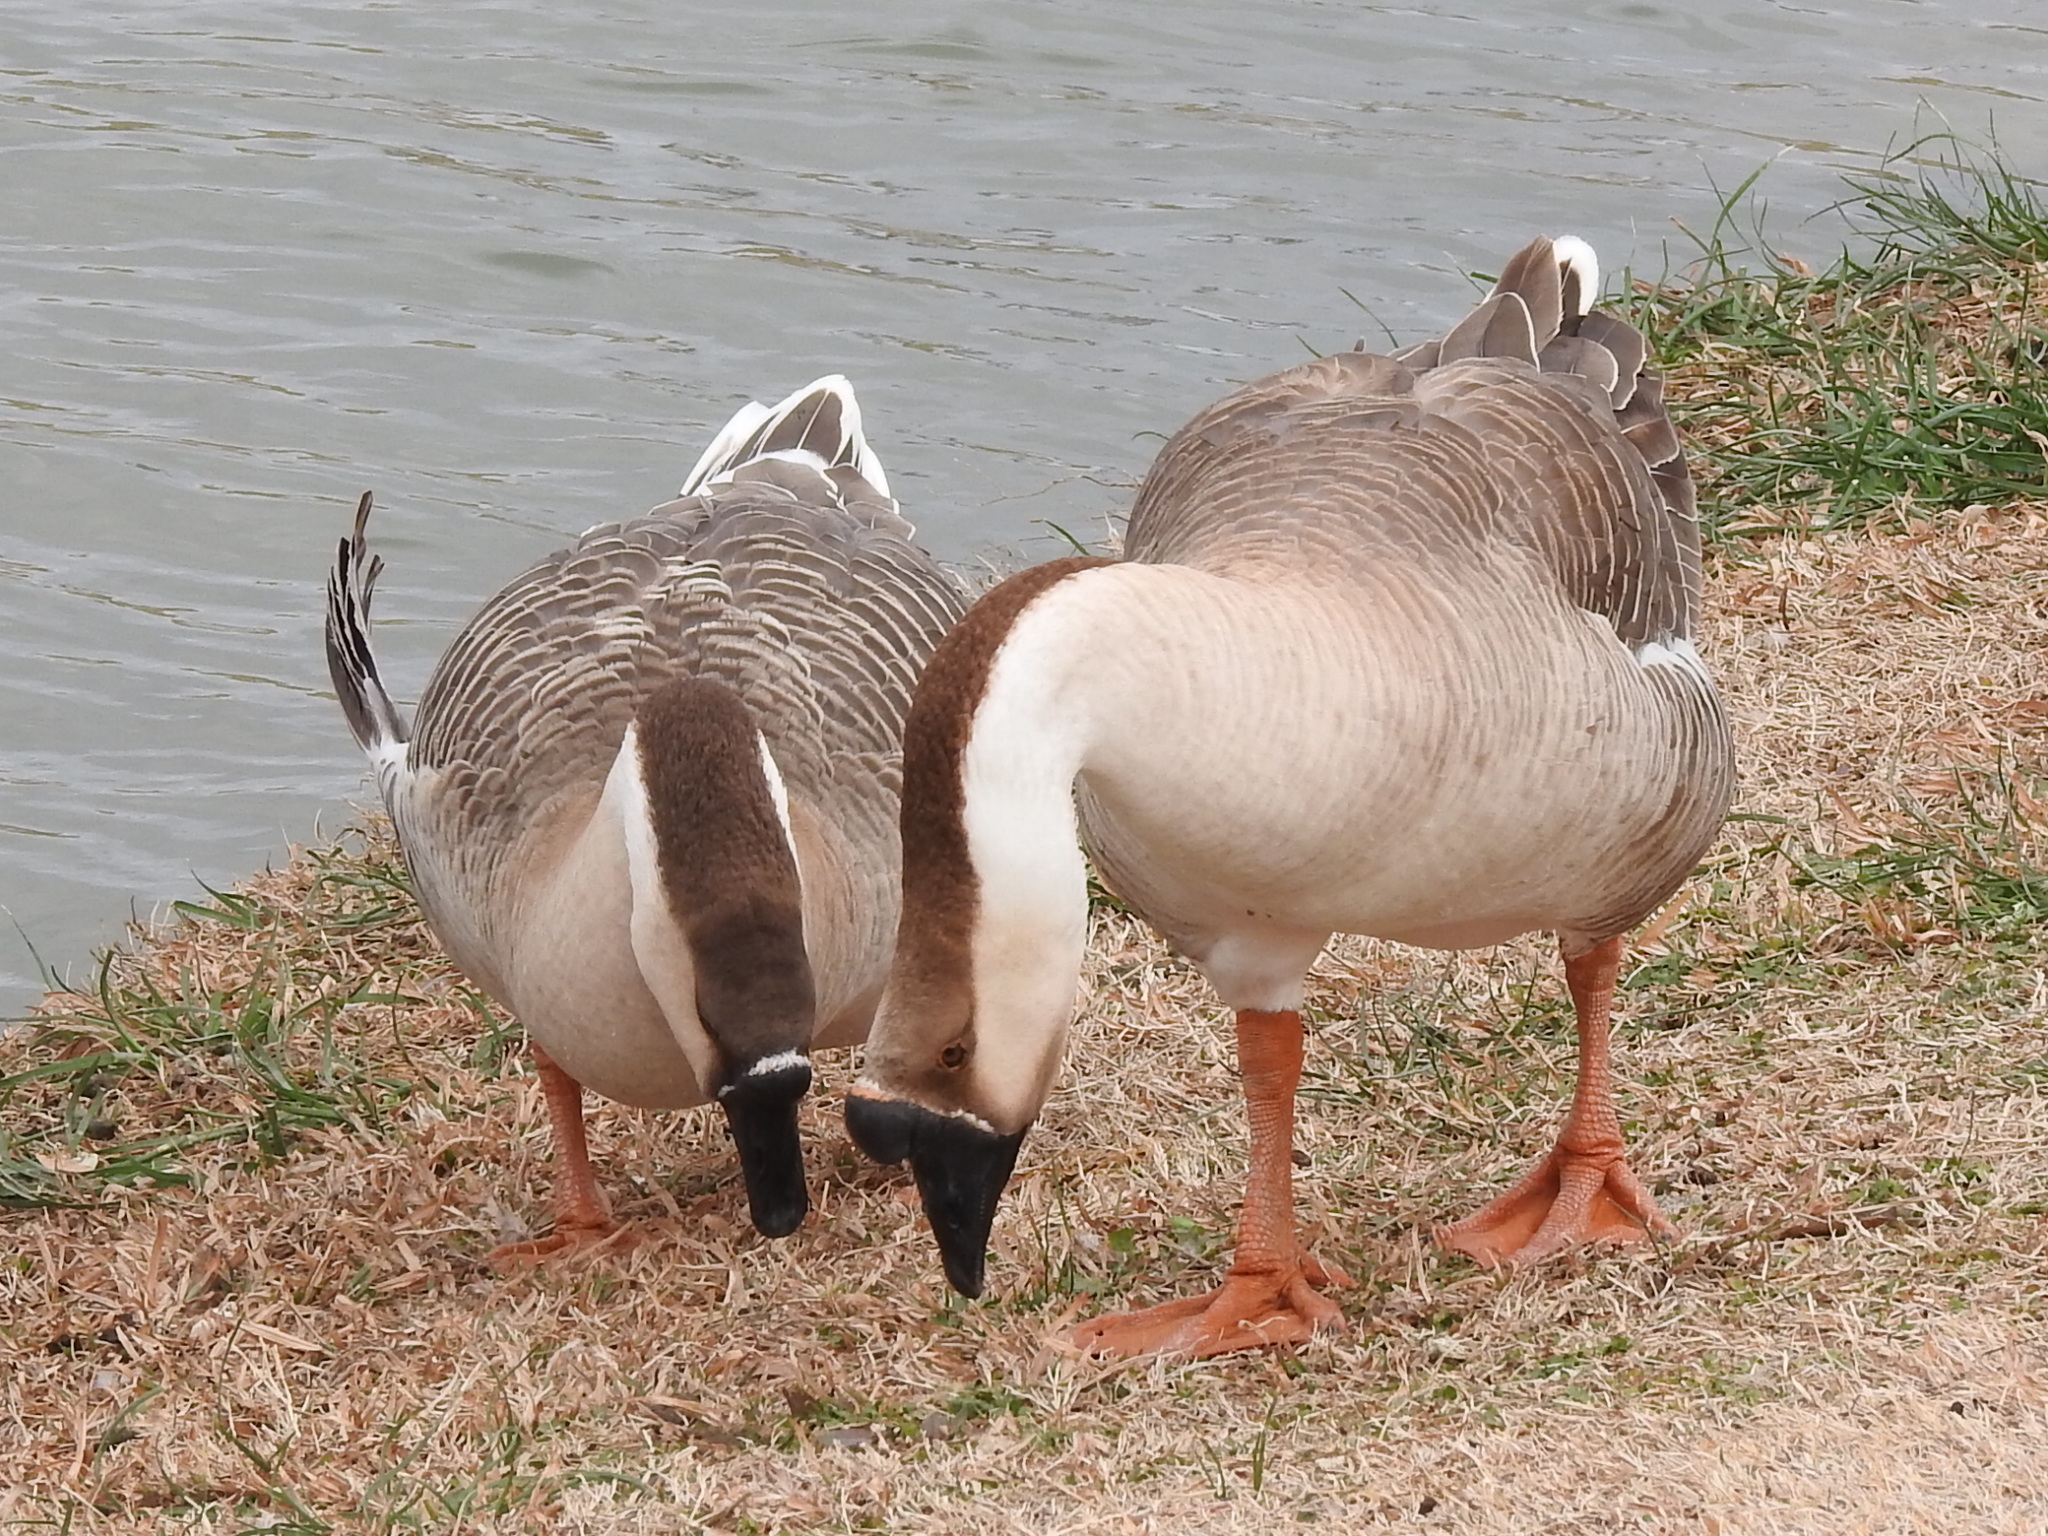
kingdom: Animalia
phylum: Chordata
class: Aves
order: Anseriformes
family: Anatidae
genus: Anser
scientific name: Anser cygnoides
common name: Swan goose
